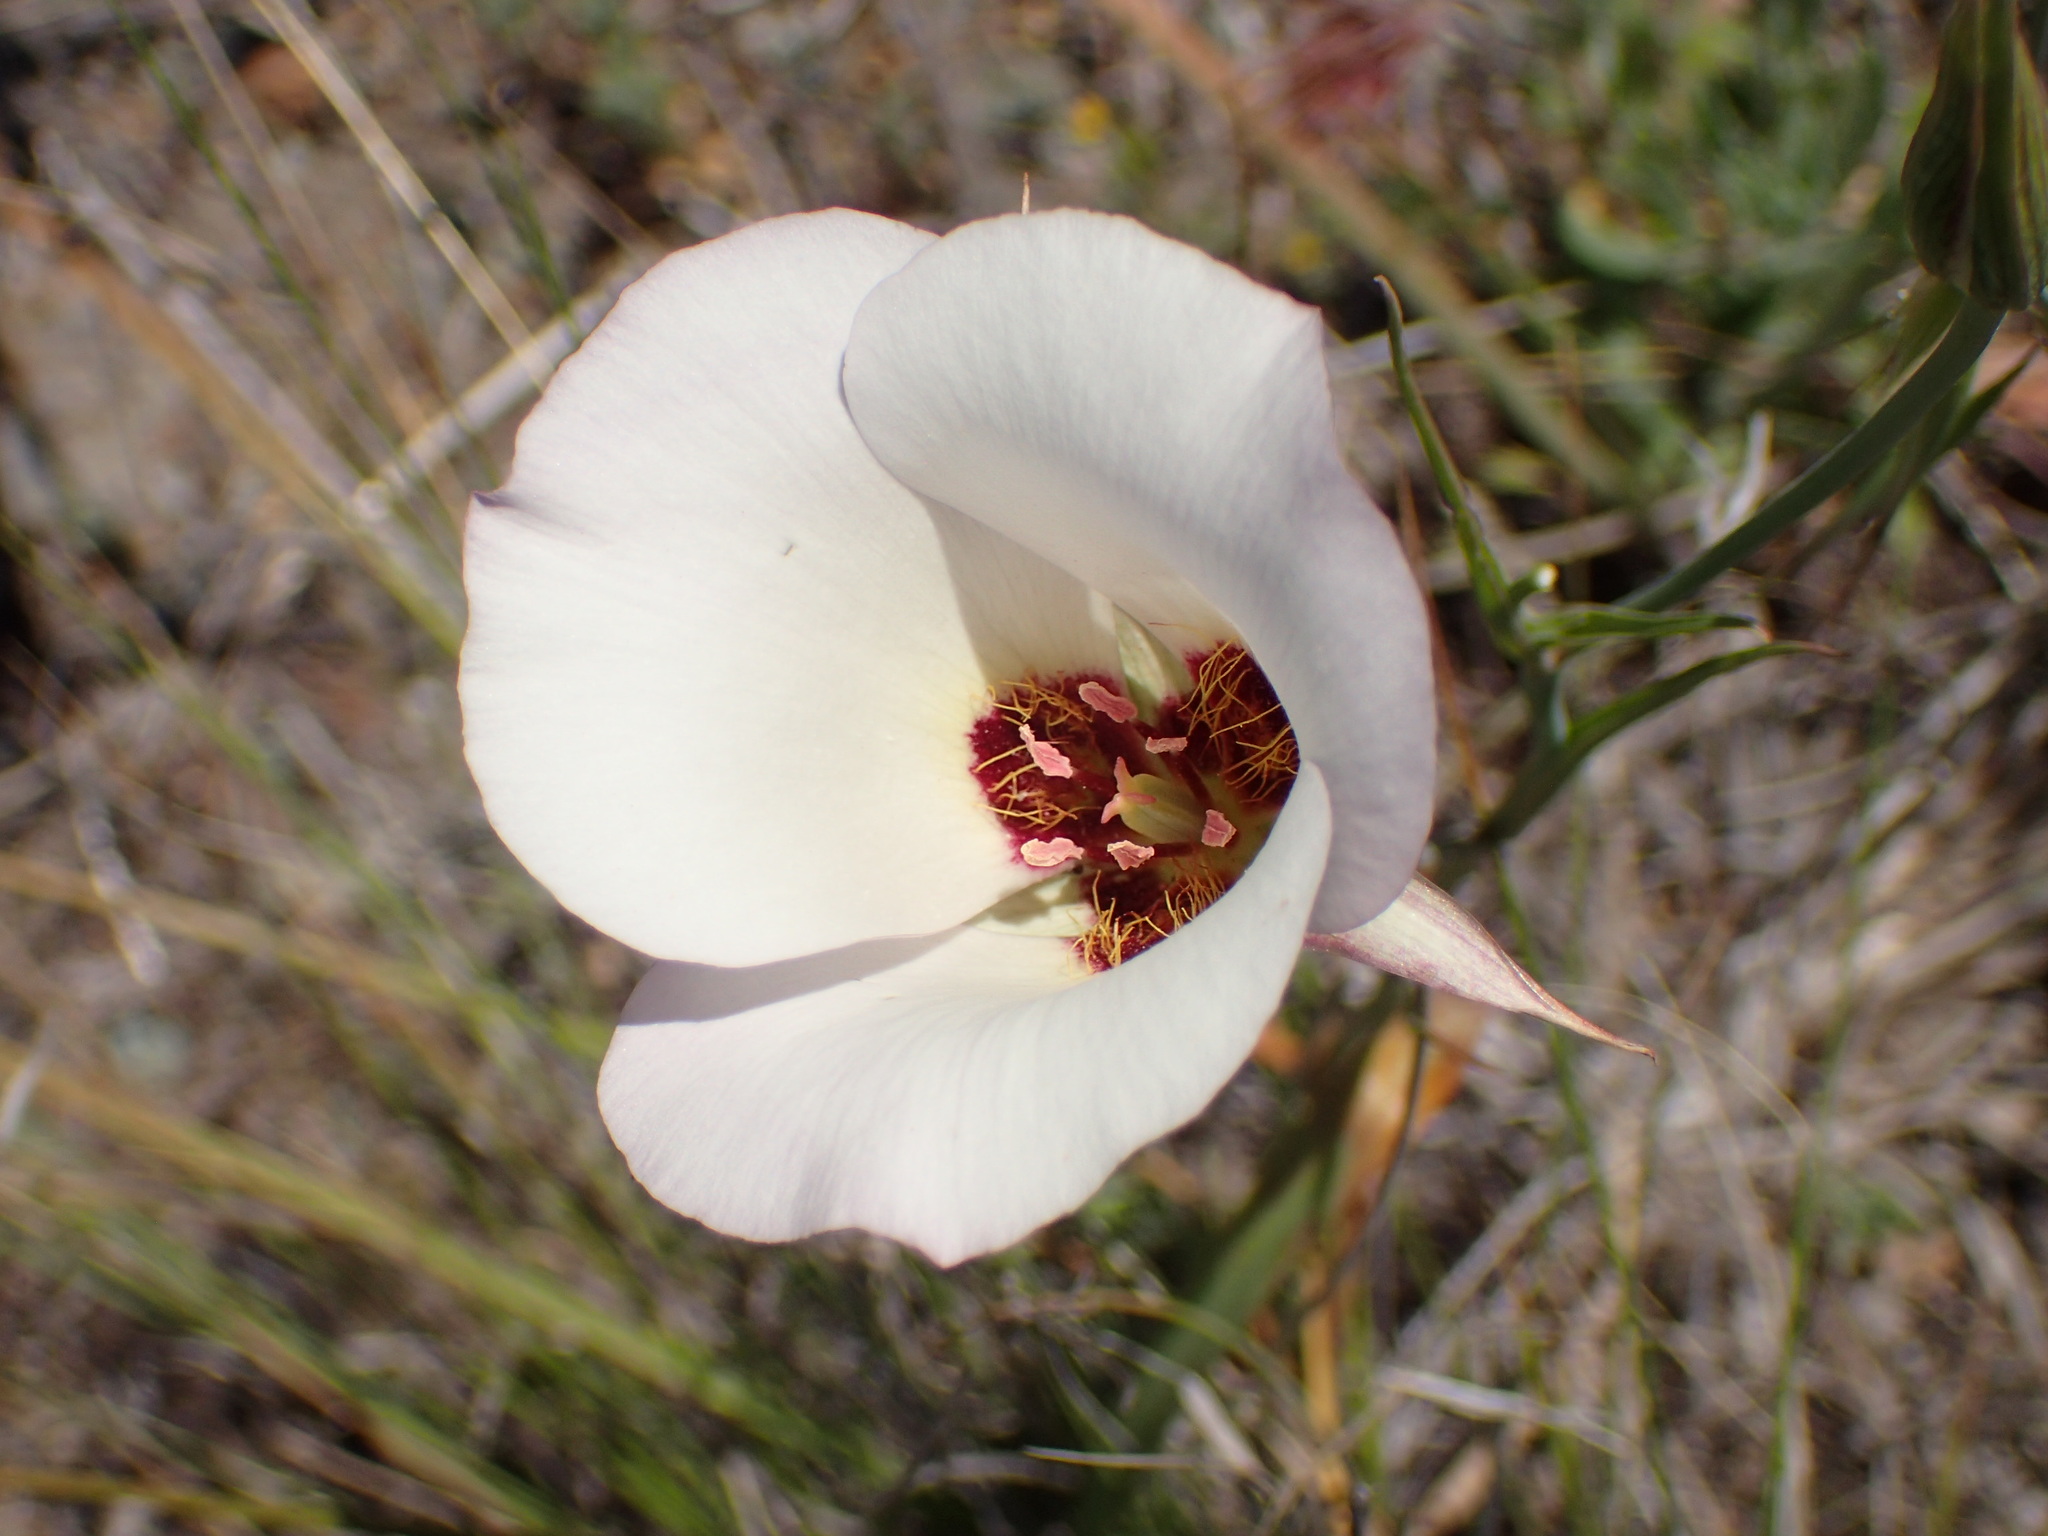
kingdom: Plantae
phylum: Tracheophyta
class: Liliopsida
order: Liliales
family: Liliaceae
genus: Calochortus
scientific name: Calochortus catalinae
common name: Catalina mariposa-lily
